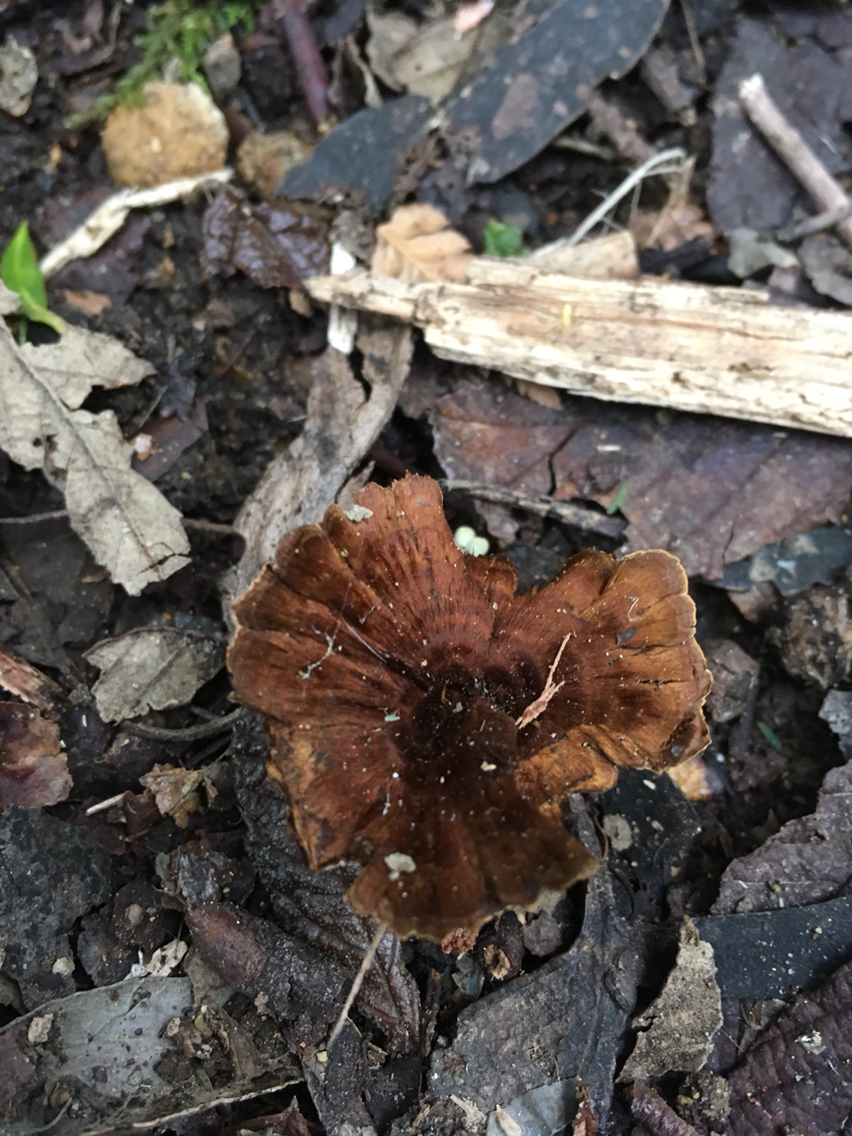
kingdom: Fungi
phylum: Basidiomycota
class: Agaricomycetes
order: Hymenochaetales
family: Hymenochaetaceae
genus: Coltricia
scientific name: Coltricia australica
